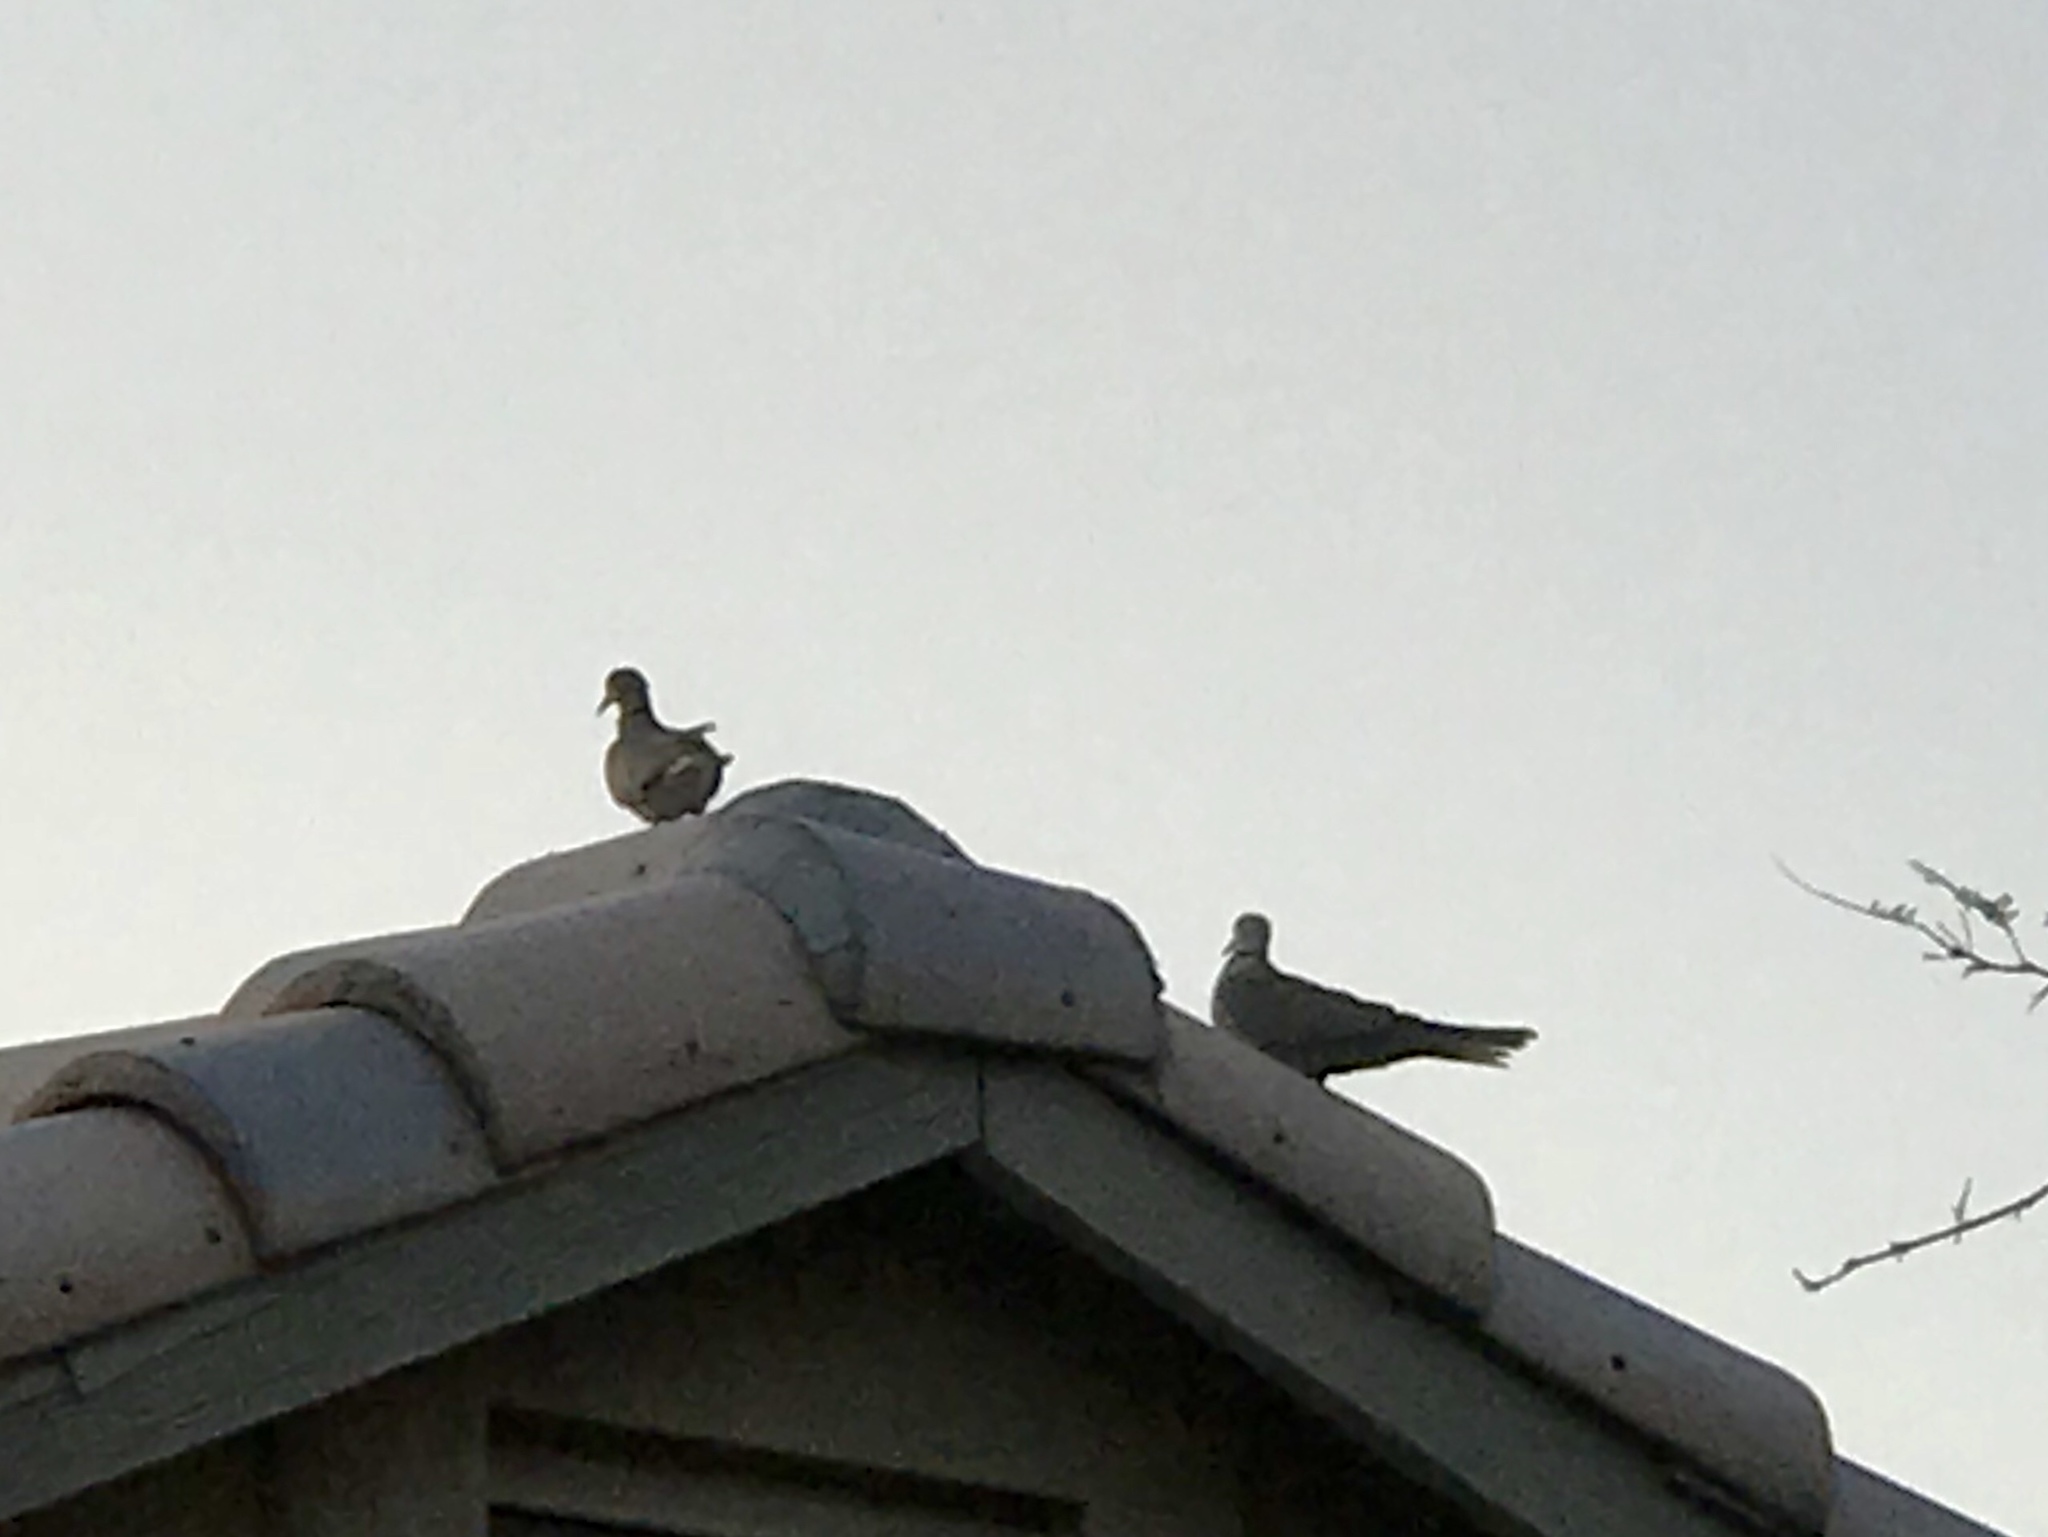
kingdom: Animalia
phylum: Chordata
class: Aves
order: Columbiformes
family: Columbidae
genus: Streptopelia
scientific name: Streptopelia decaocto
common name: Eurasian collared dove
